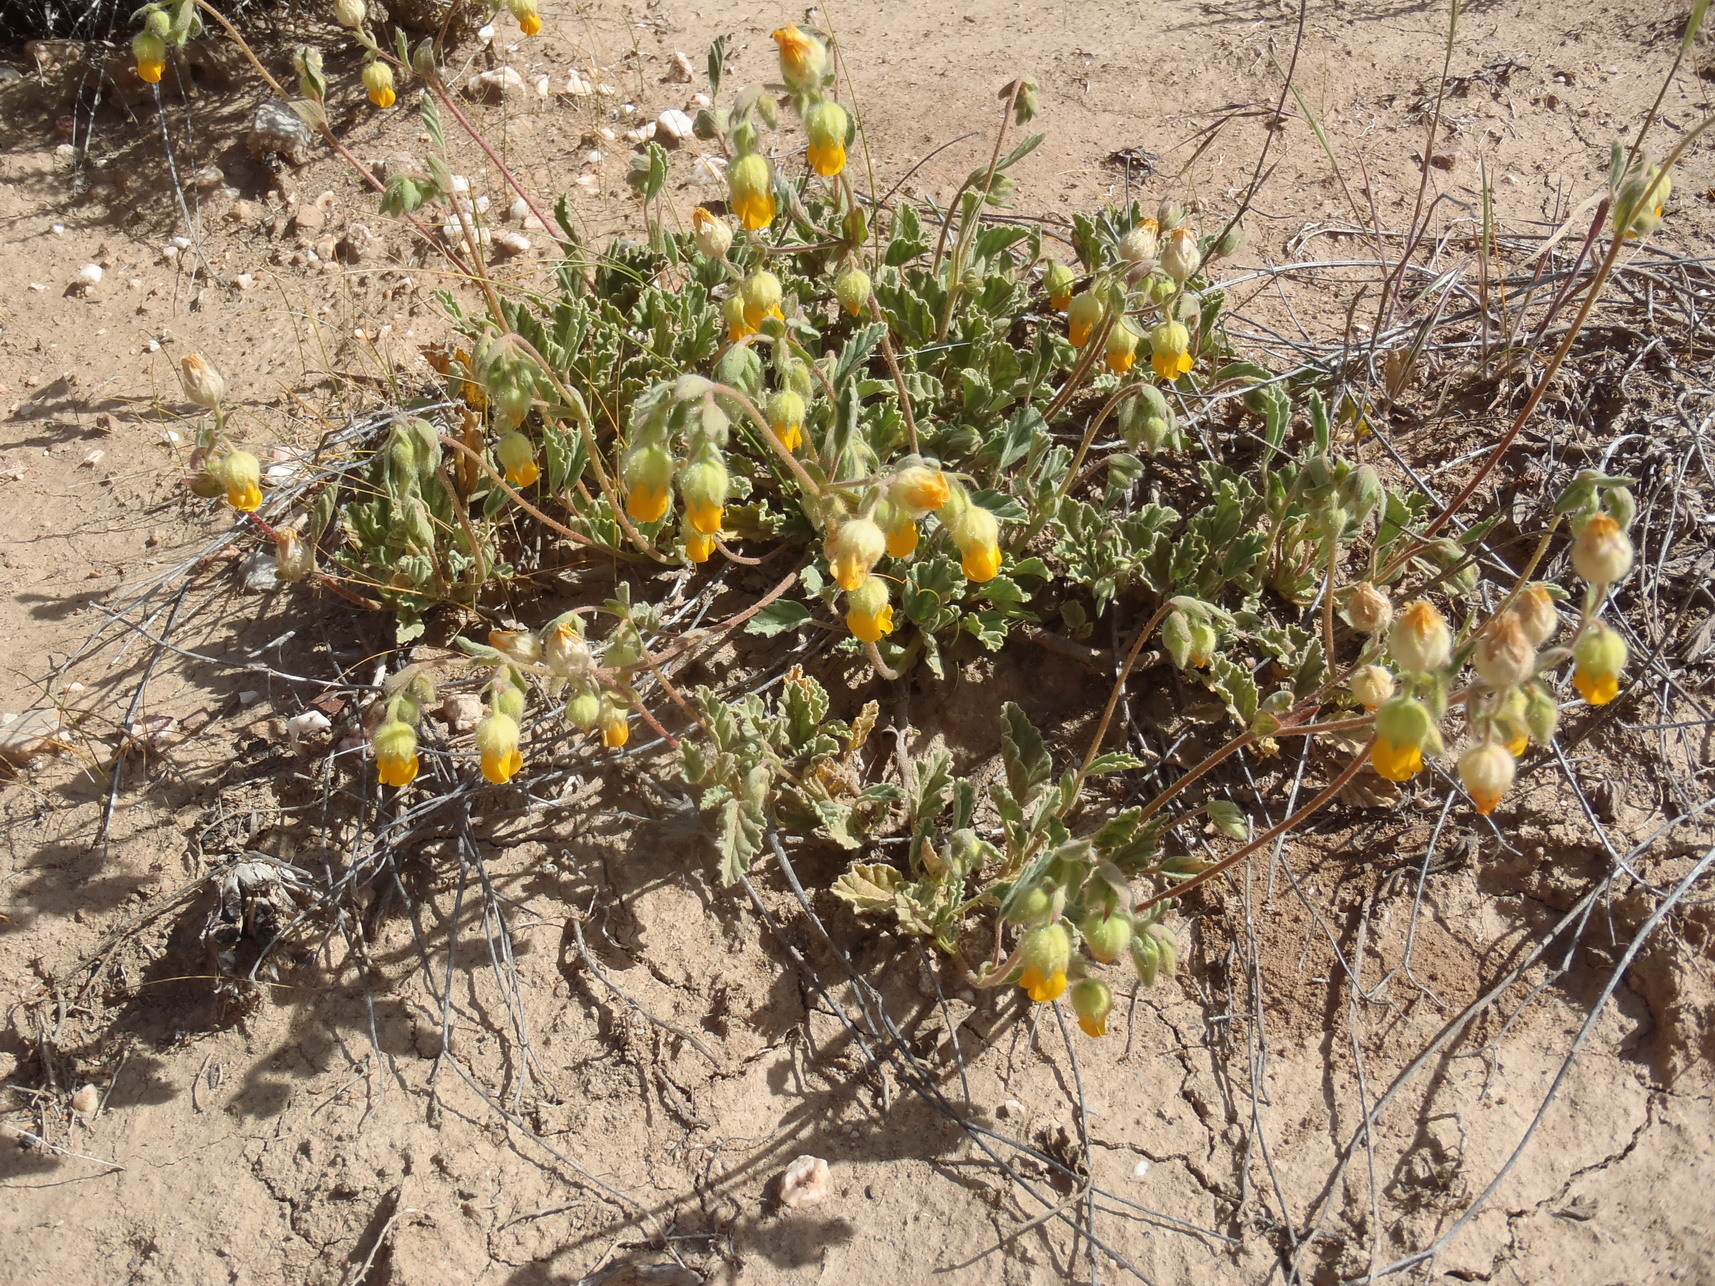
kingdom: Plantae
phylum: Tracheophyta
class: Magnoliopsida
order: Malvales
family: Malvaceae
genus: Hermannia
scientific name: Hermannia althaeifolia
